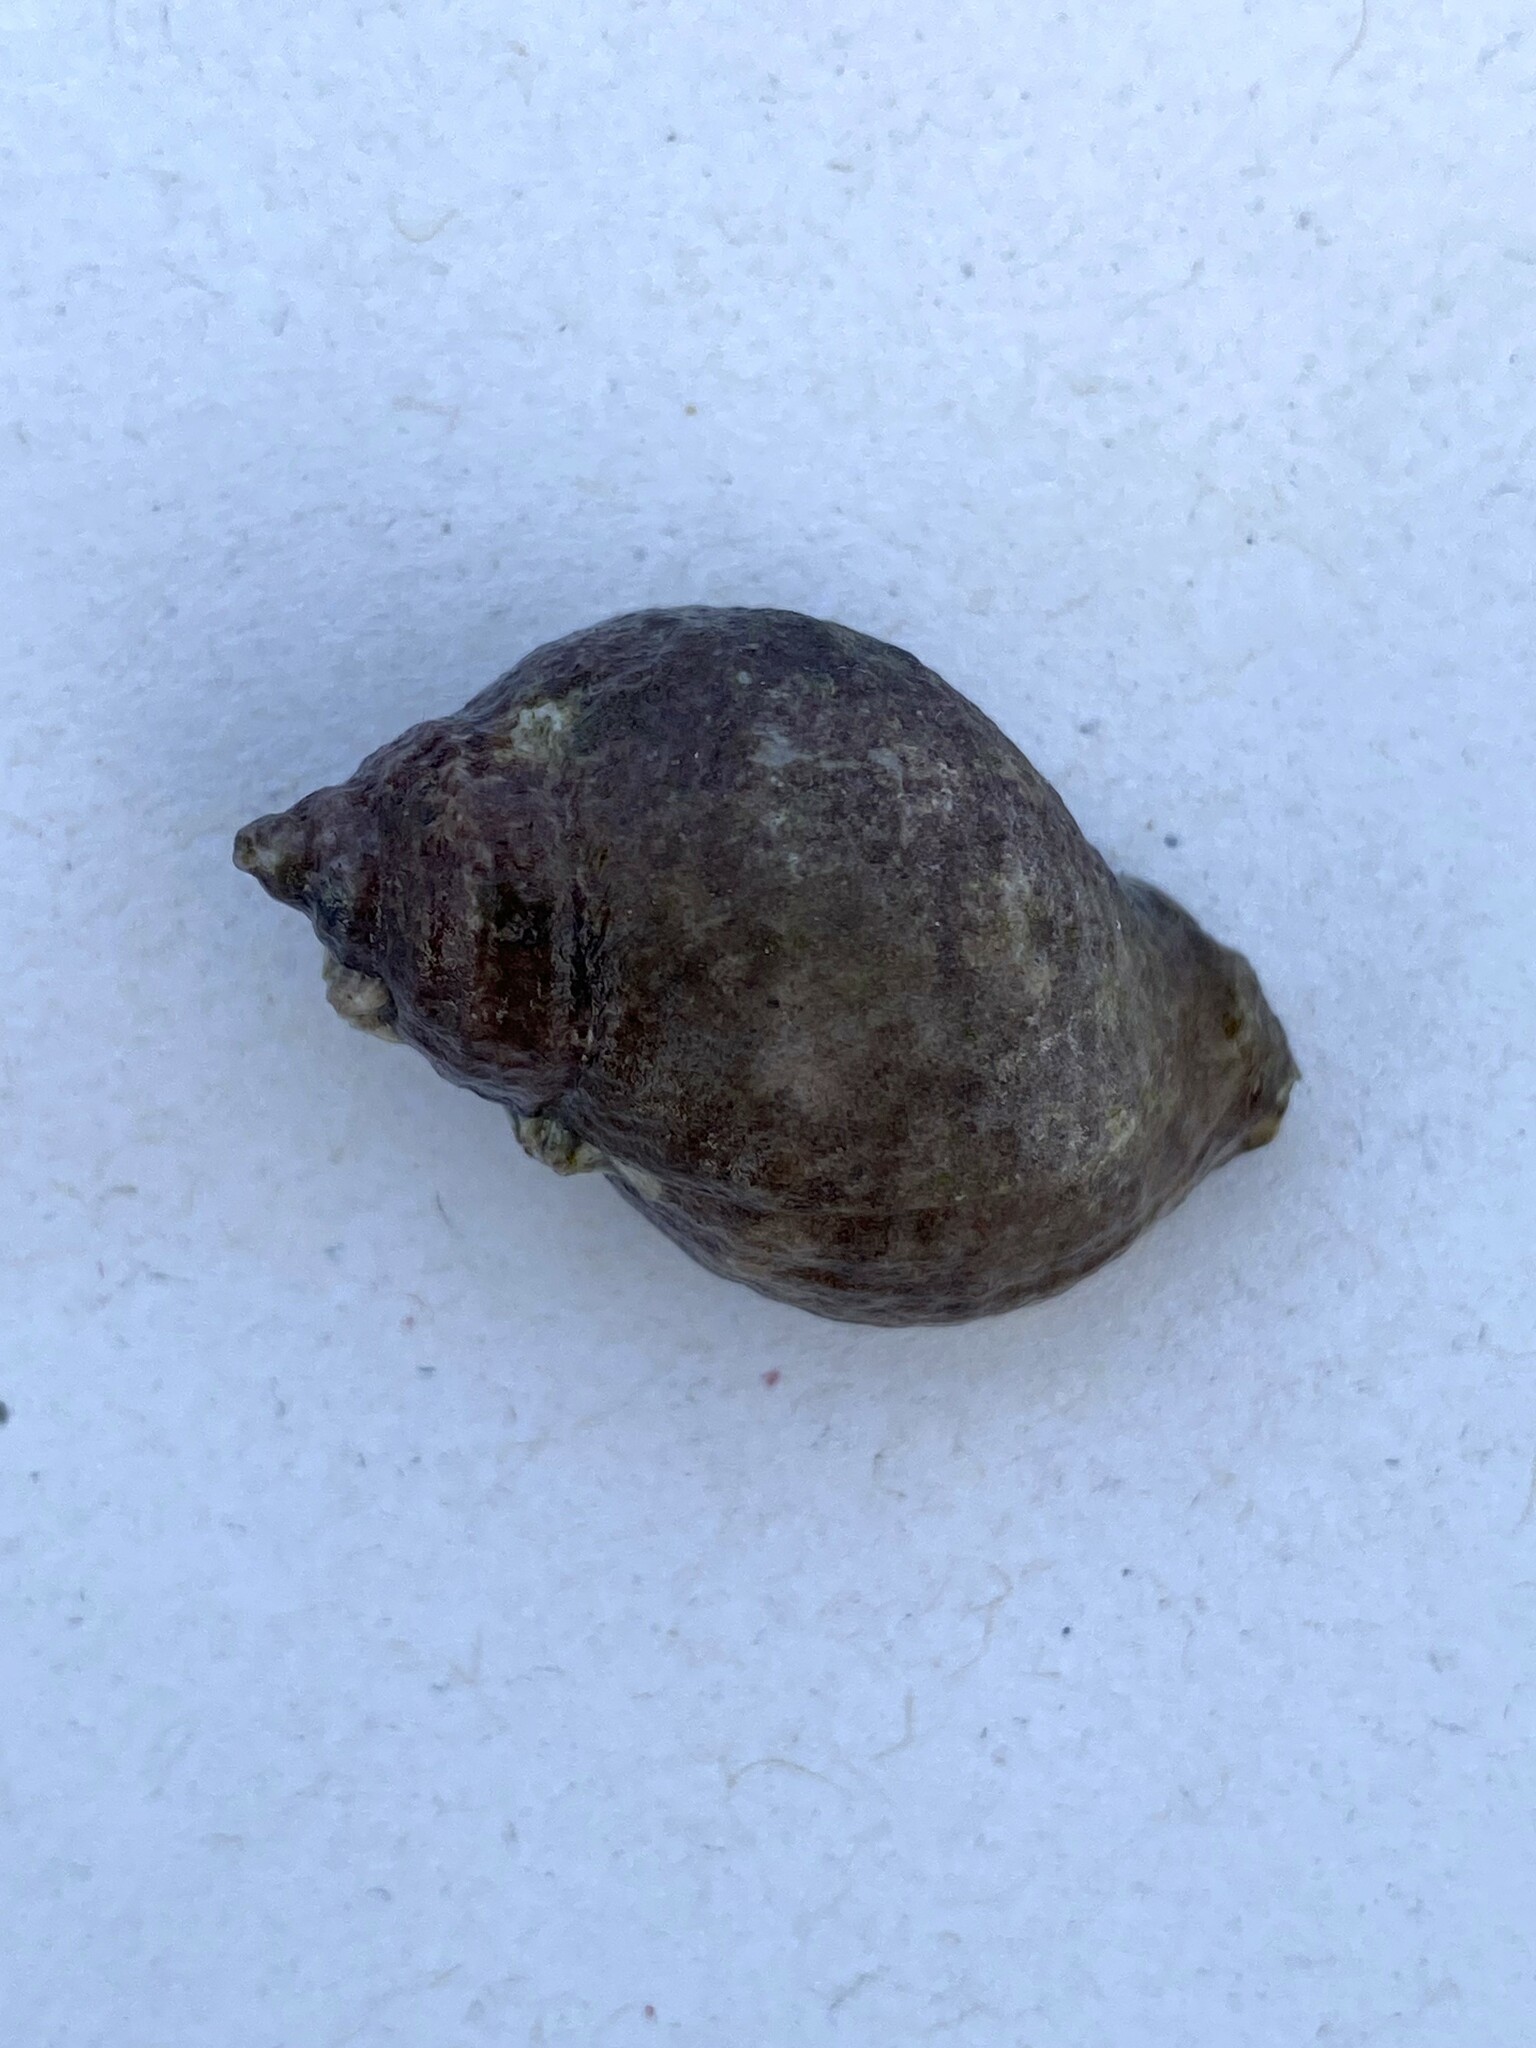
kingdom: Animalia
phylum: Mollusca
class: Gastropoda
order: Neogastropoda
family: Muricidae
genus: Nucella
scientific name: Nucella lapillus
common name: Dog whelk
